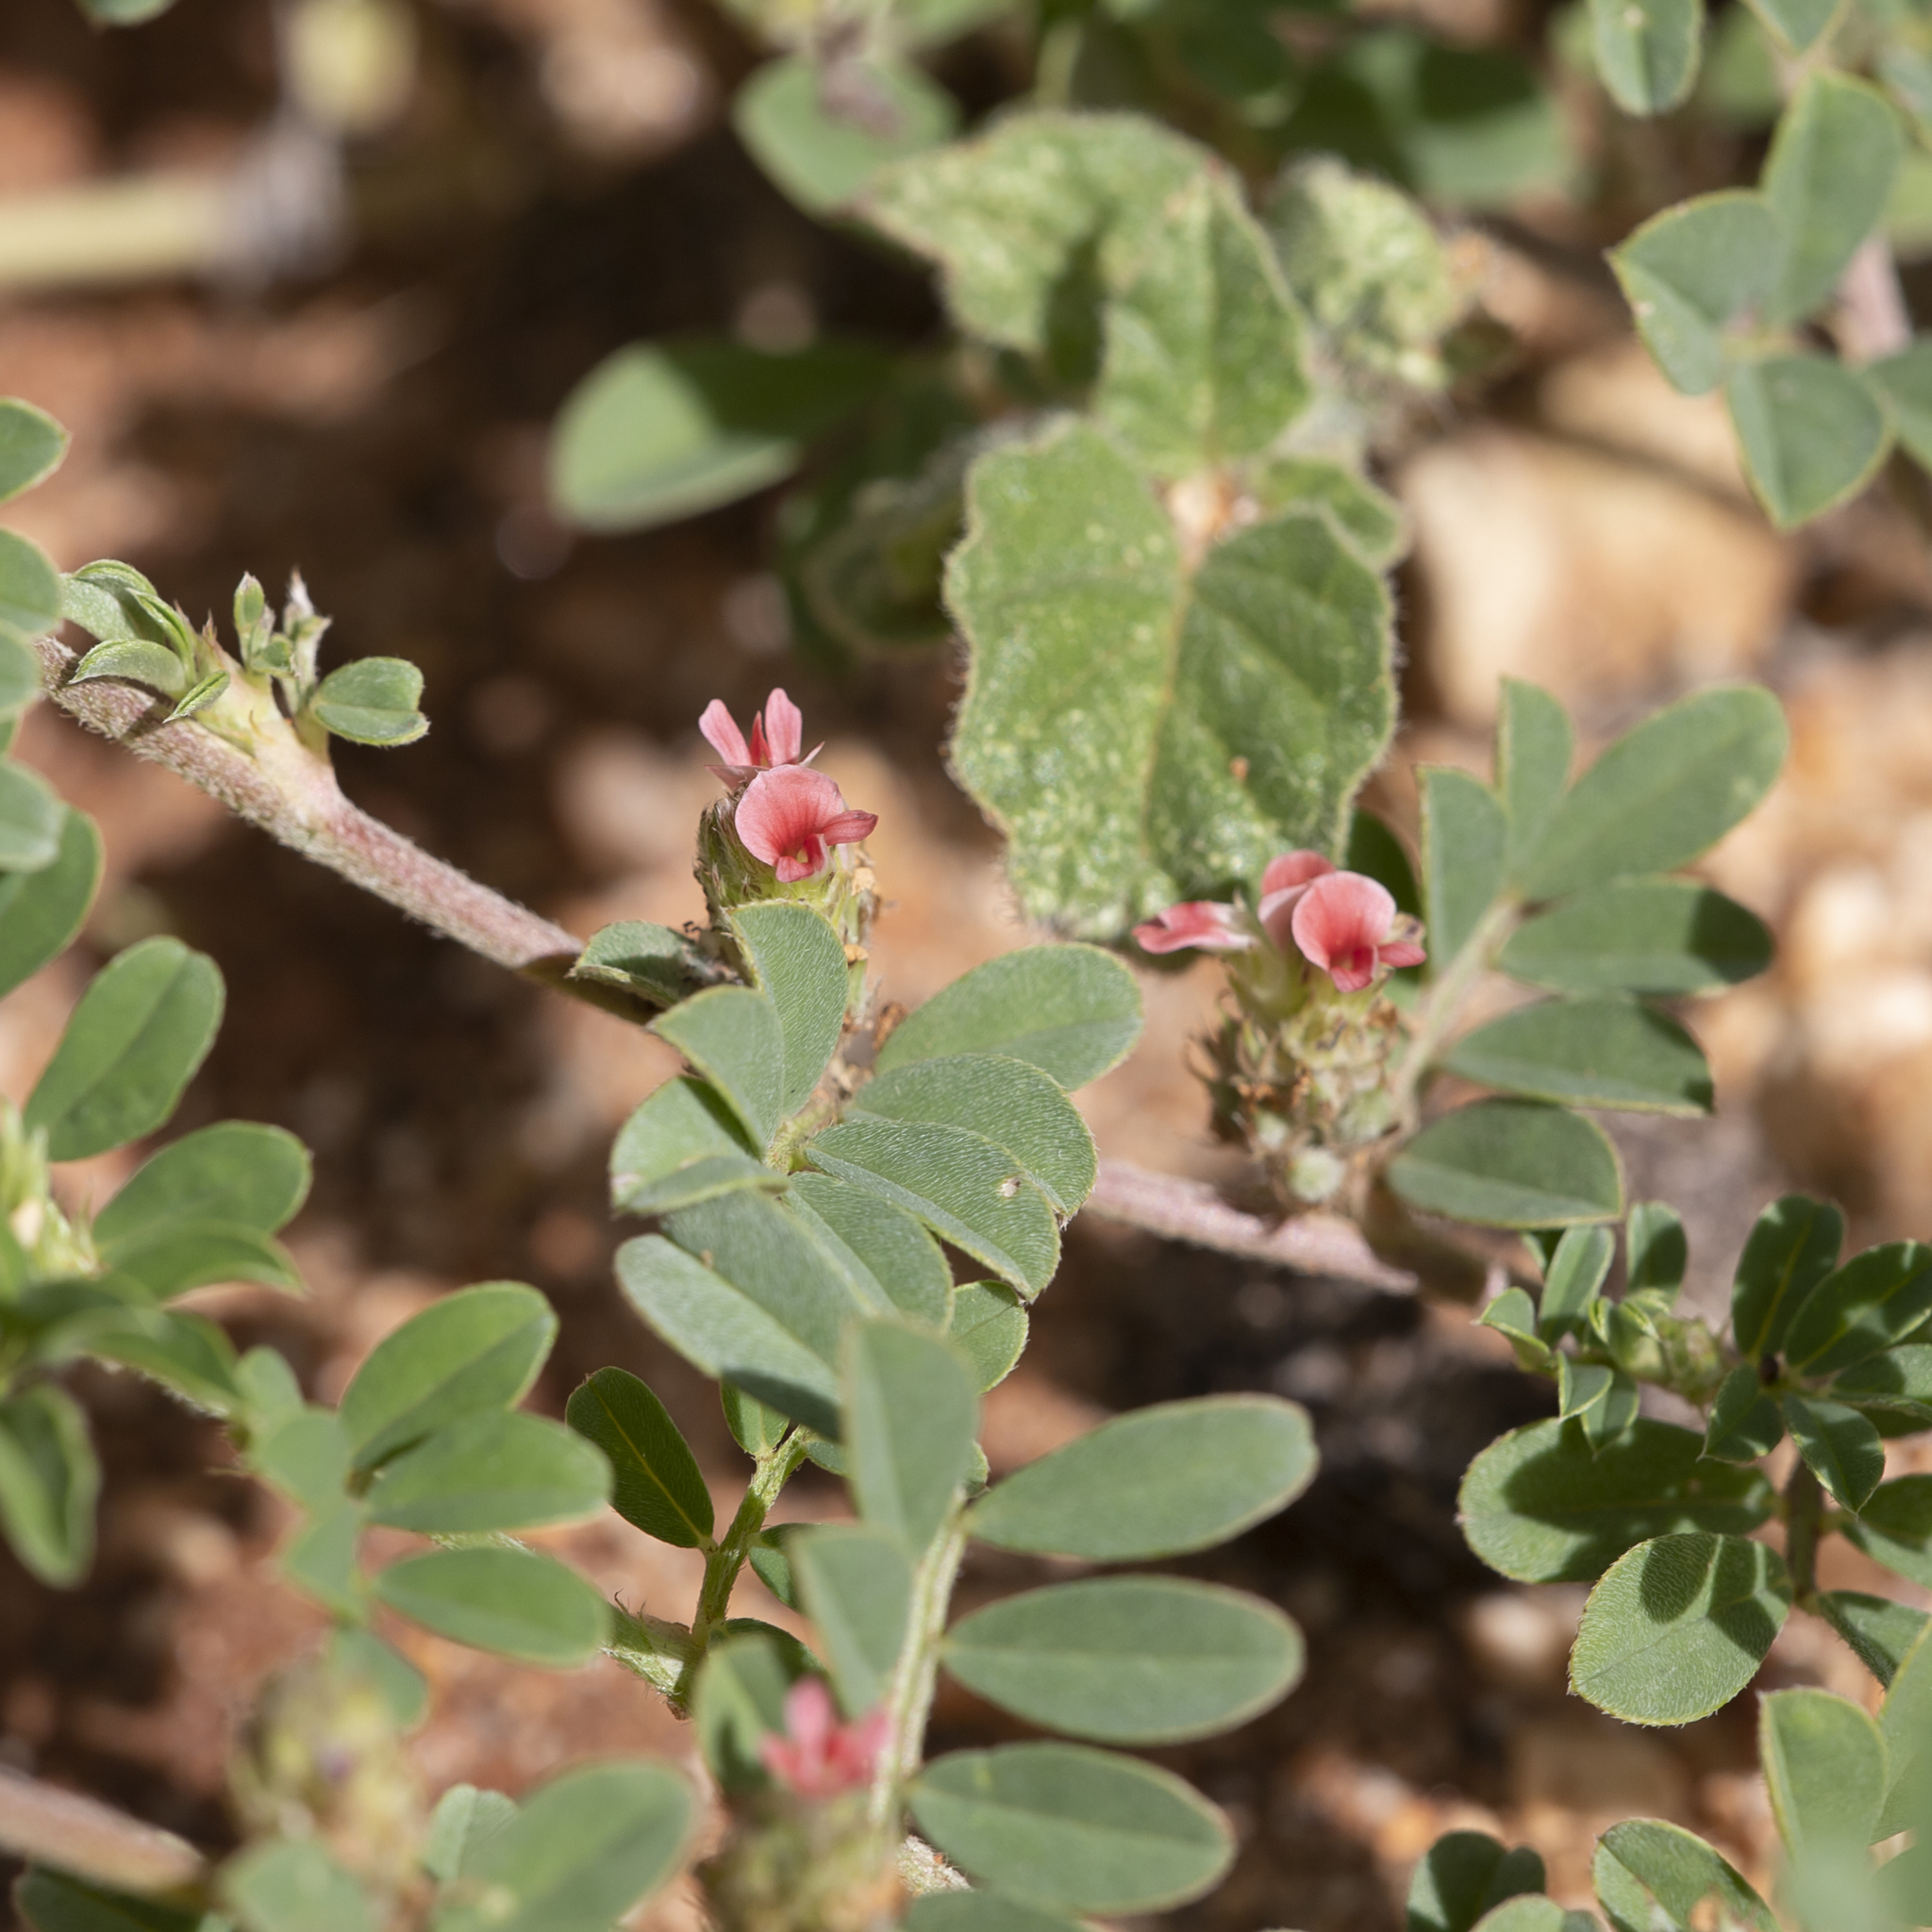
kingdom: Plantae
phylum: Tracheophyta
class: Magnoliopsida
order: Fabales
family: Fabaceae
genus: Indigofera
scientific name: Indigofera linnaei
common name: Nine-leaf indigo
